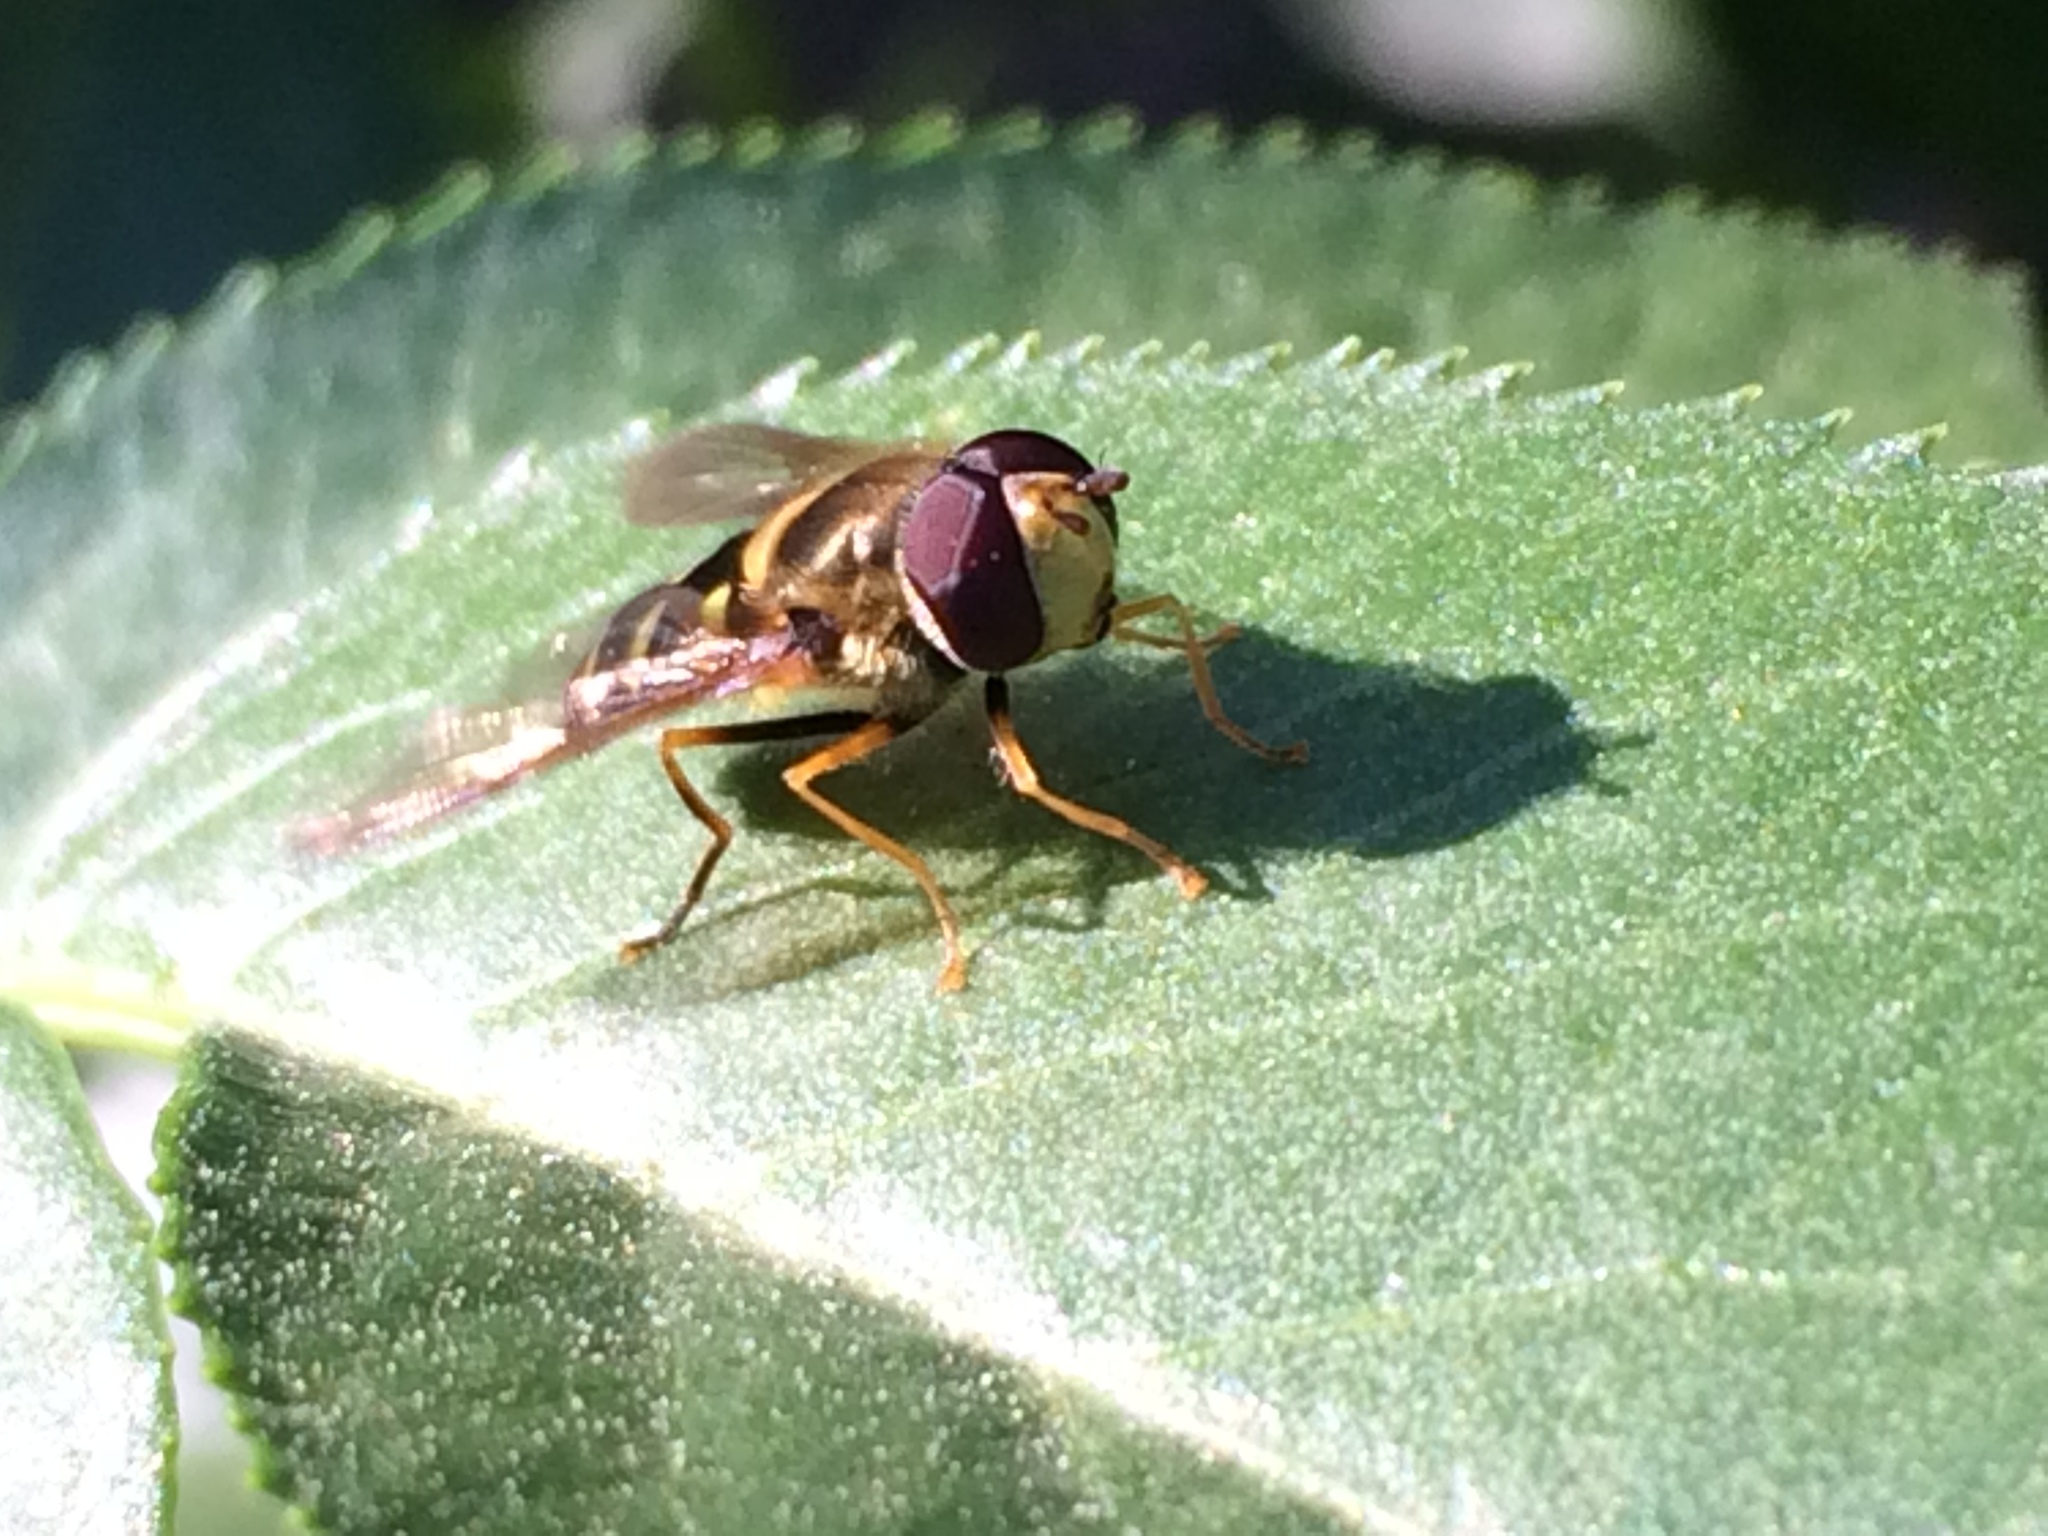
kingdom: Animalia
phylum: Arthropoda
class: Insecta
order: Diptera
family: Syrphidae
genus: Syrphus
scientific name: Syrphus opinator
